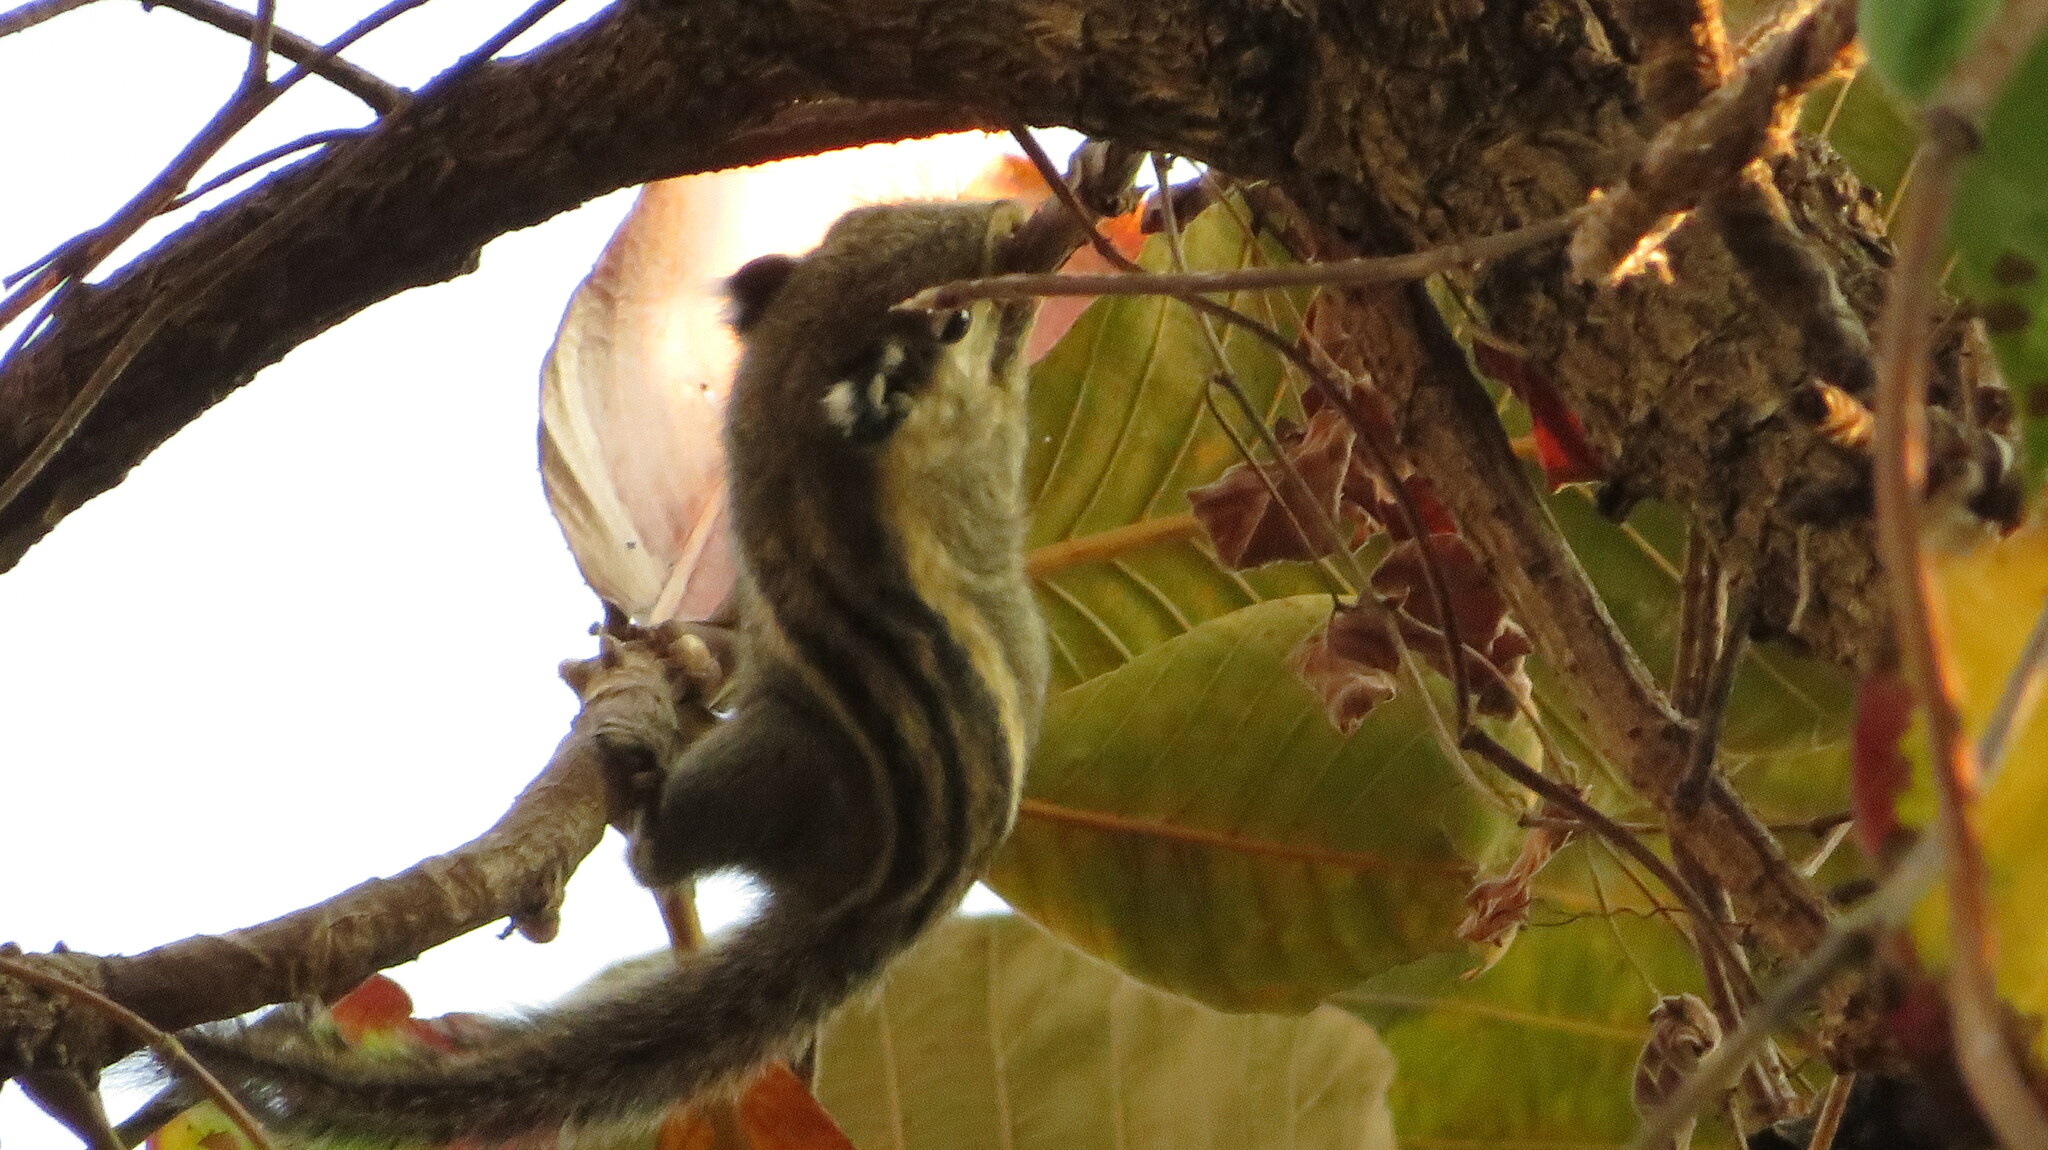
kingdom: Animalia
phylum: Chordata
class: Mammalia
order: Rodentia
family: Sciuridae
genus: Tamiops
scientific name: Tamiops mcclellandii
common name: Himalayan striped squirrel
